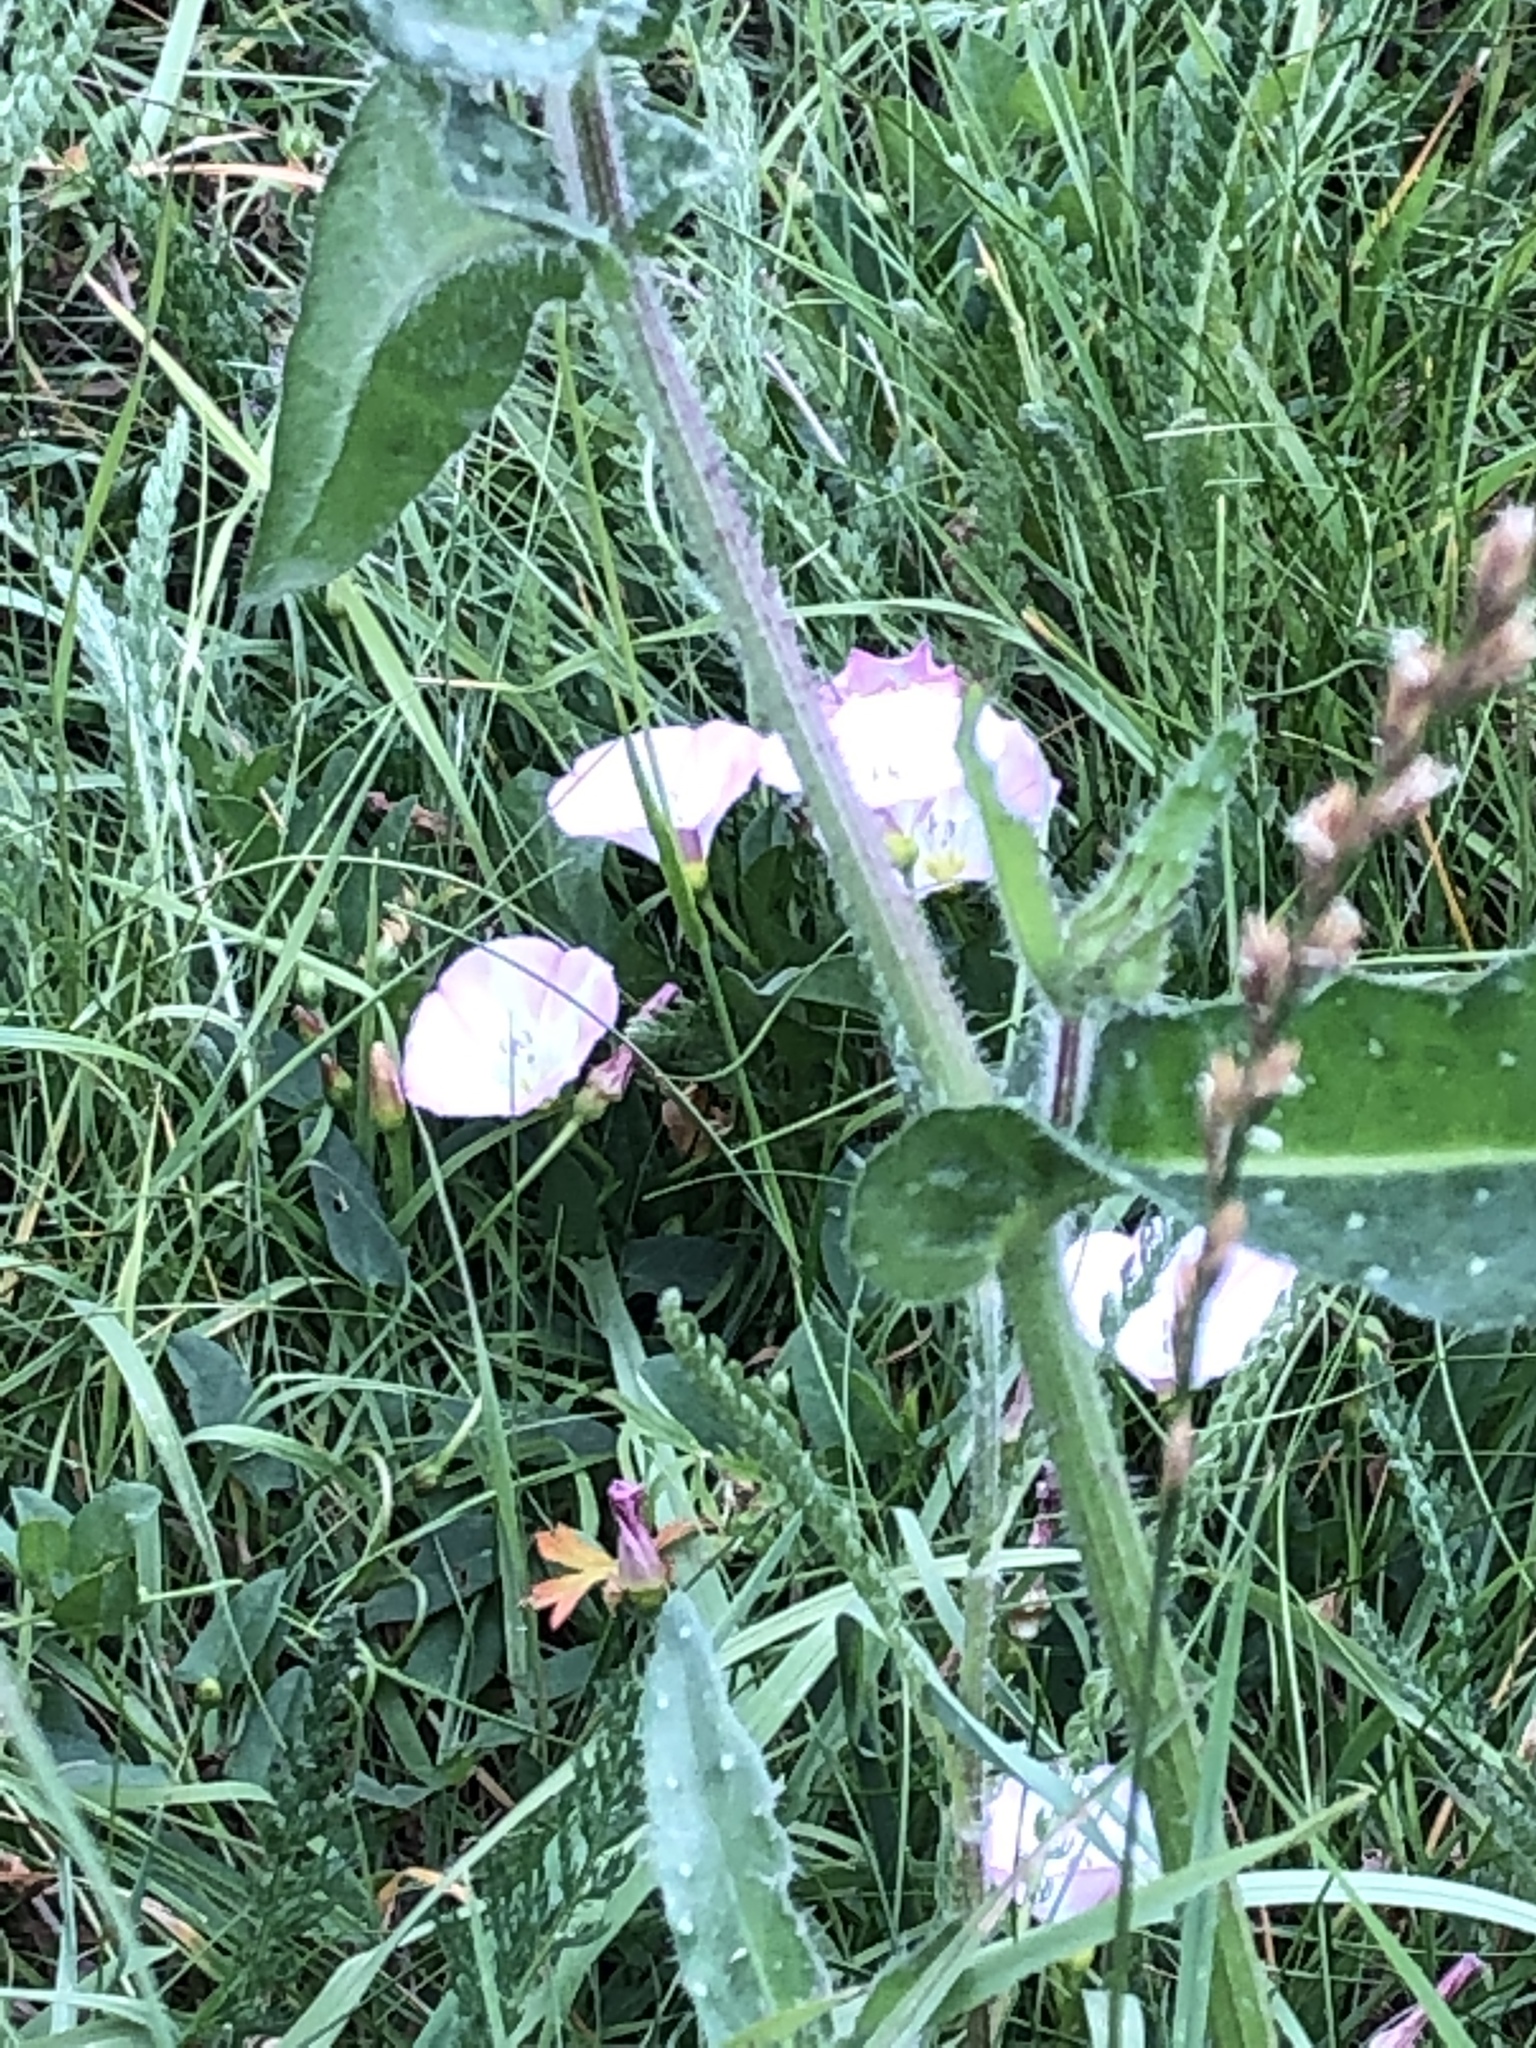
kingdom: Plantae
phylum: Tracheophyta
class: Magnoliopsida
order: Solanales
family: Convolvulaceae
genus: Convolvulus
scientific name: Convolvulus arvensis
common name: Field bindweed
